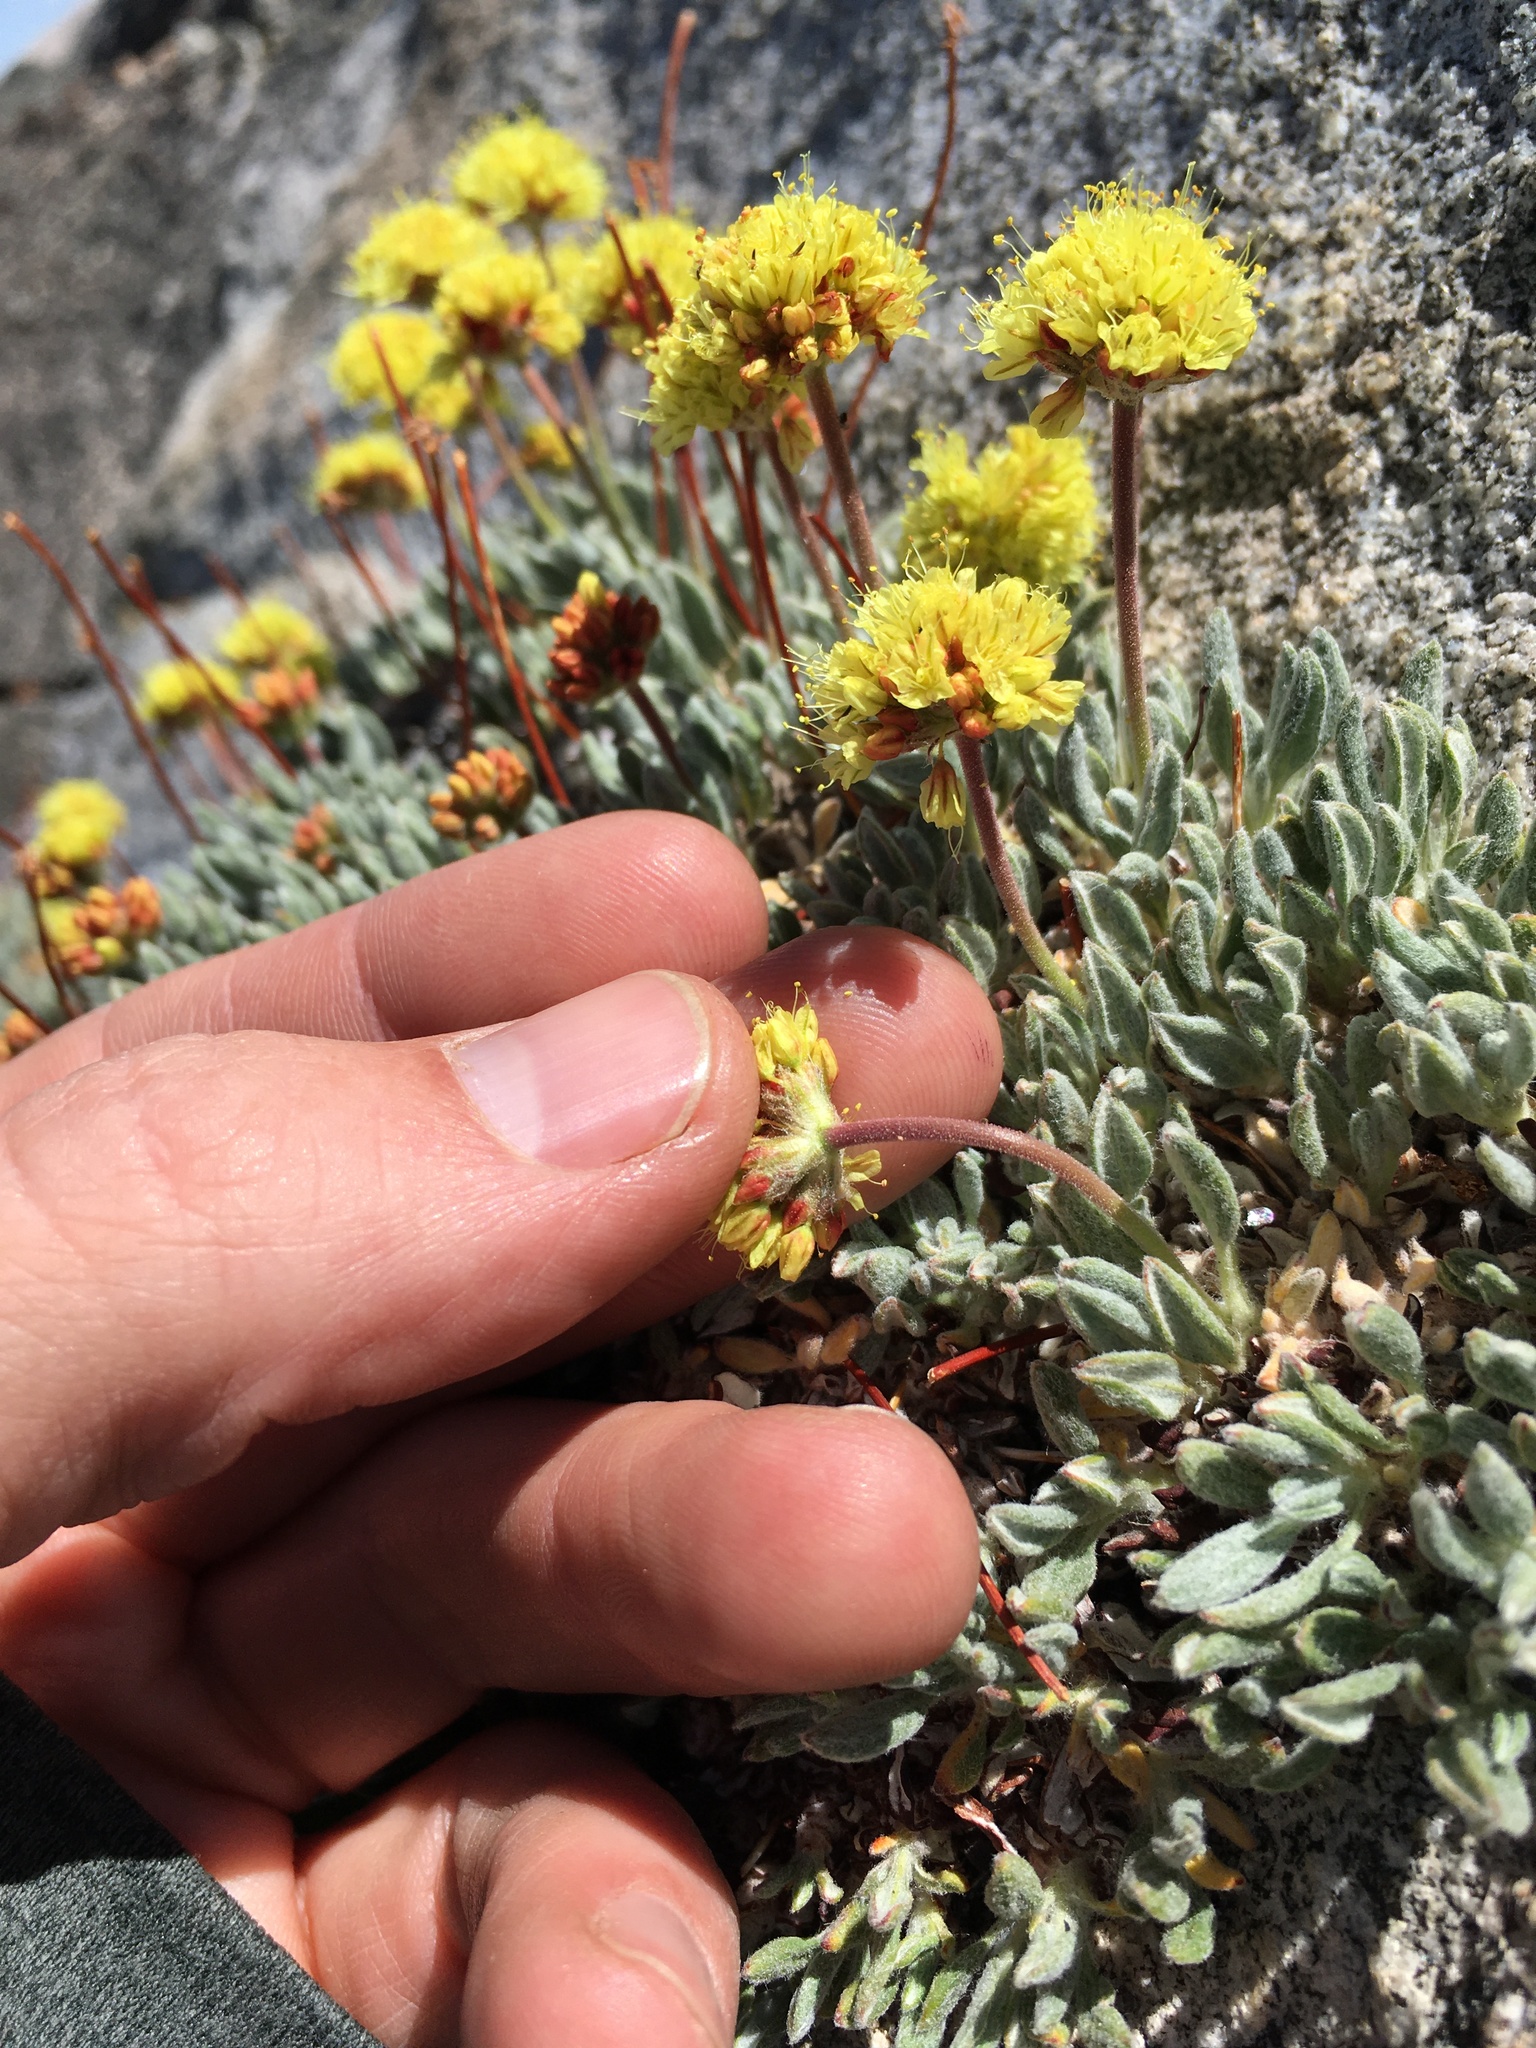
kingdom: Plantae
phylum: Tracheophyta
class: Magnoliopsida
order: Caryophyllales
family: Polygonaceae
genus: Eriogonum
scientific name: Eriogonum rosense
